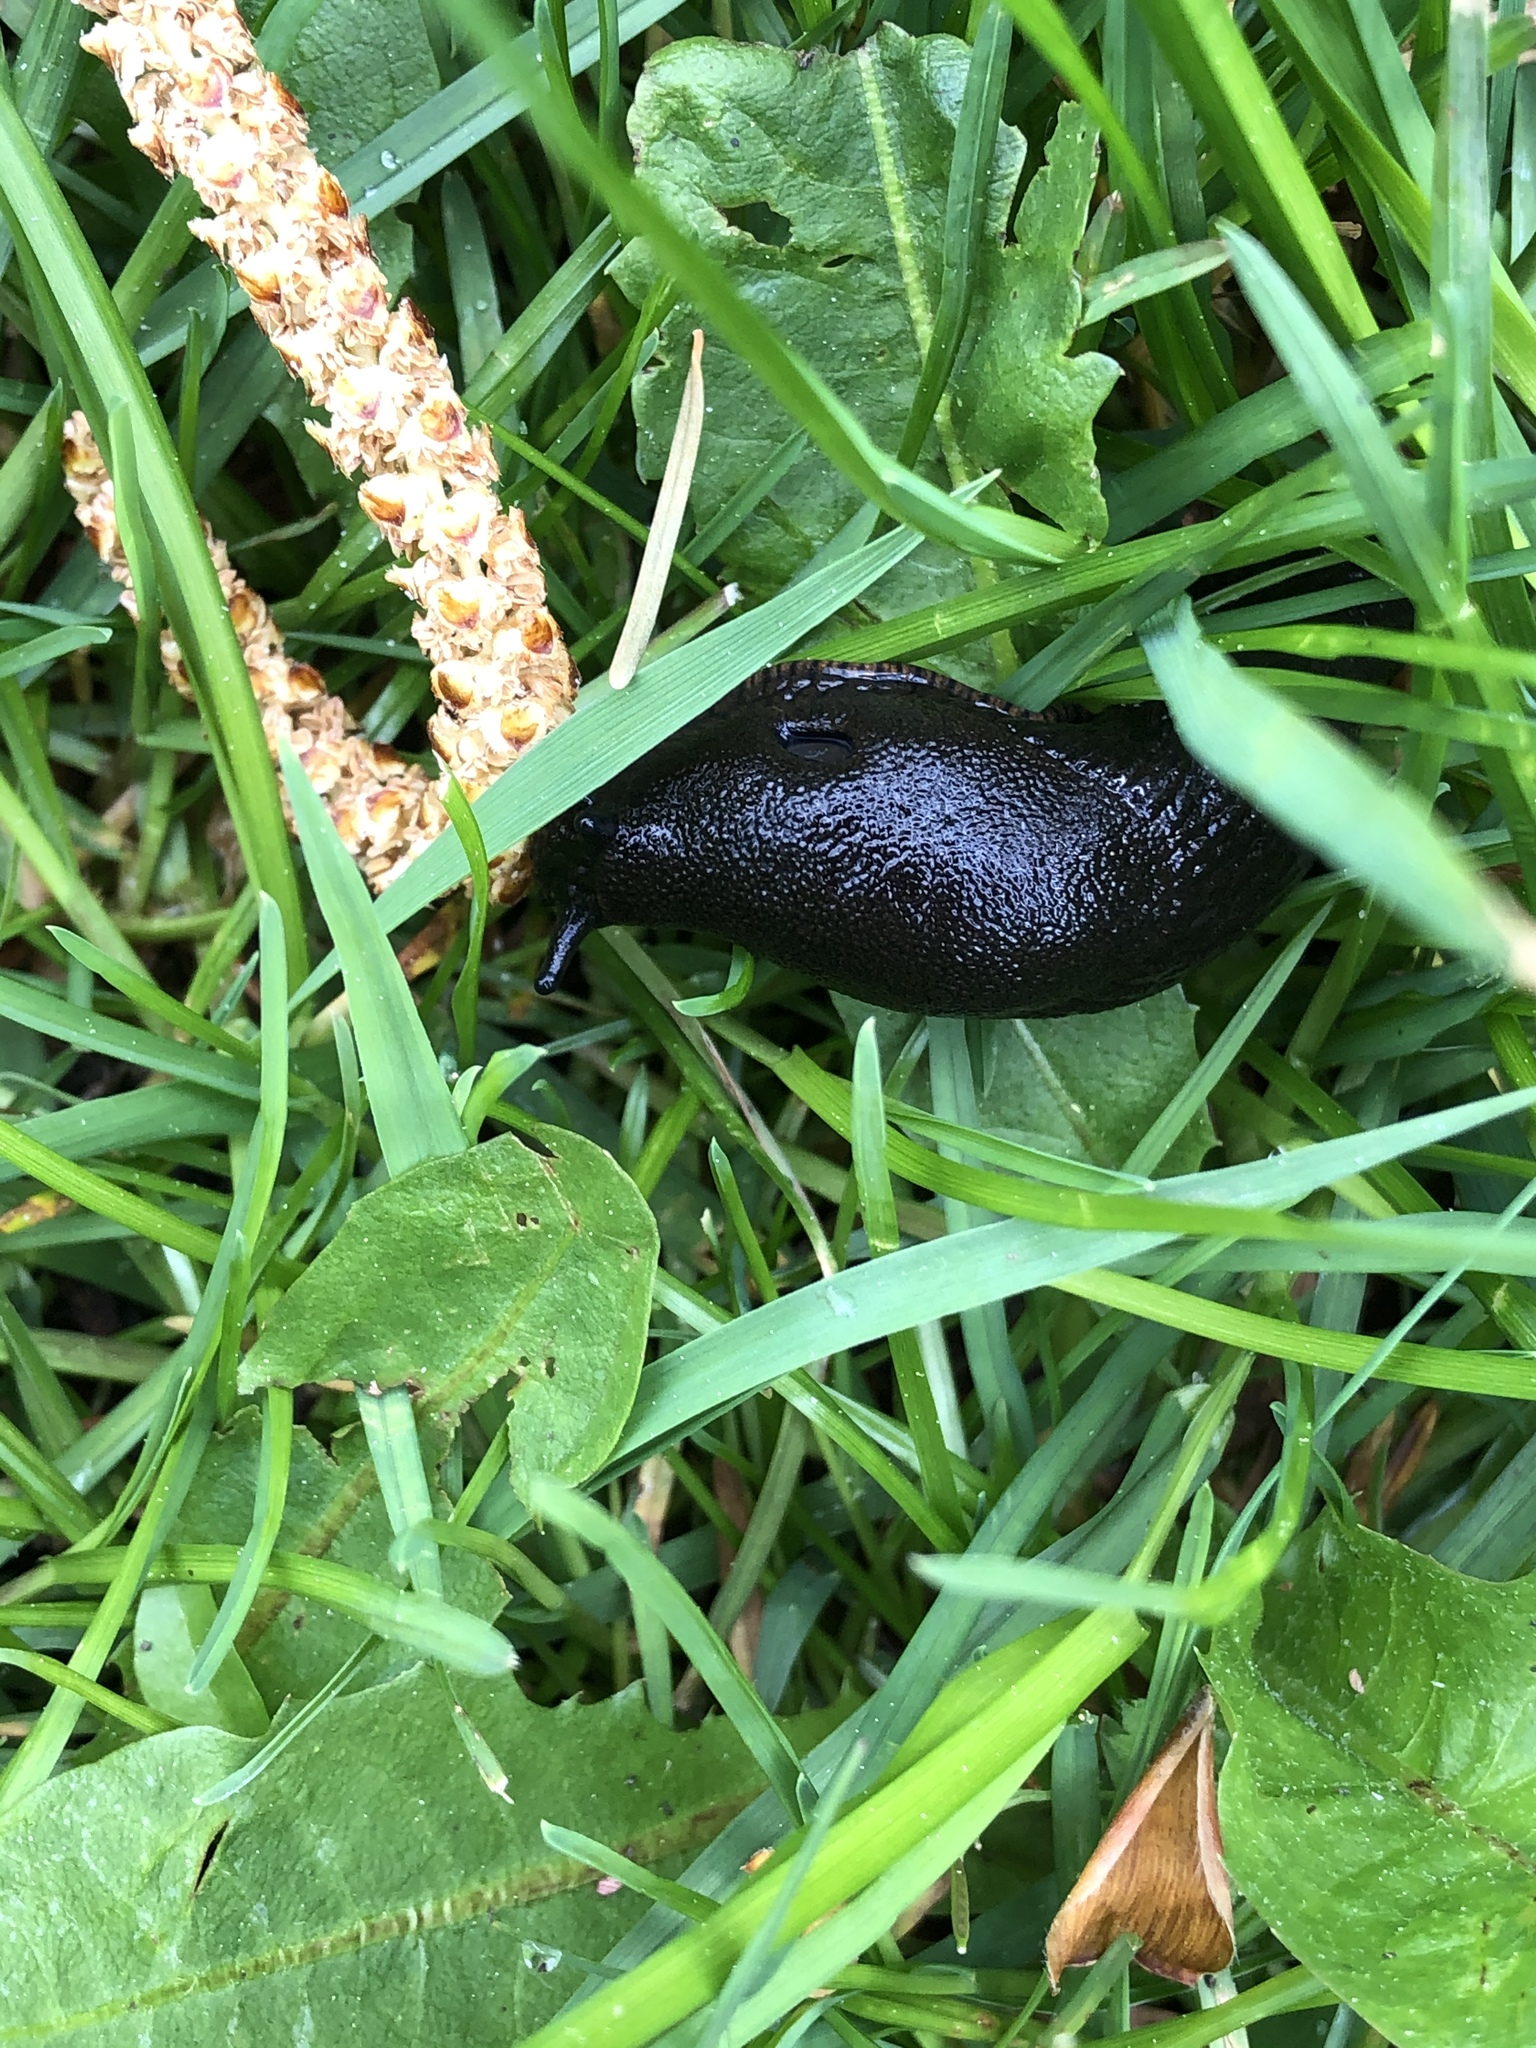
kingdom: Animalia
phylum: Mollusca
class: Gastropoda
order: Stylommatophora
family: Arionidae
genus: Arion
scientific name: Arion rufus
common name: Chocolate arion
